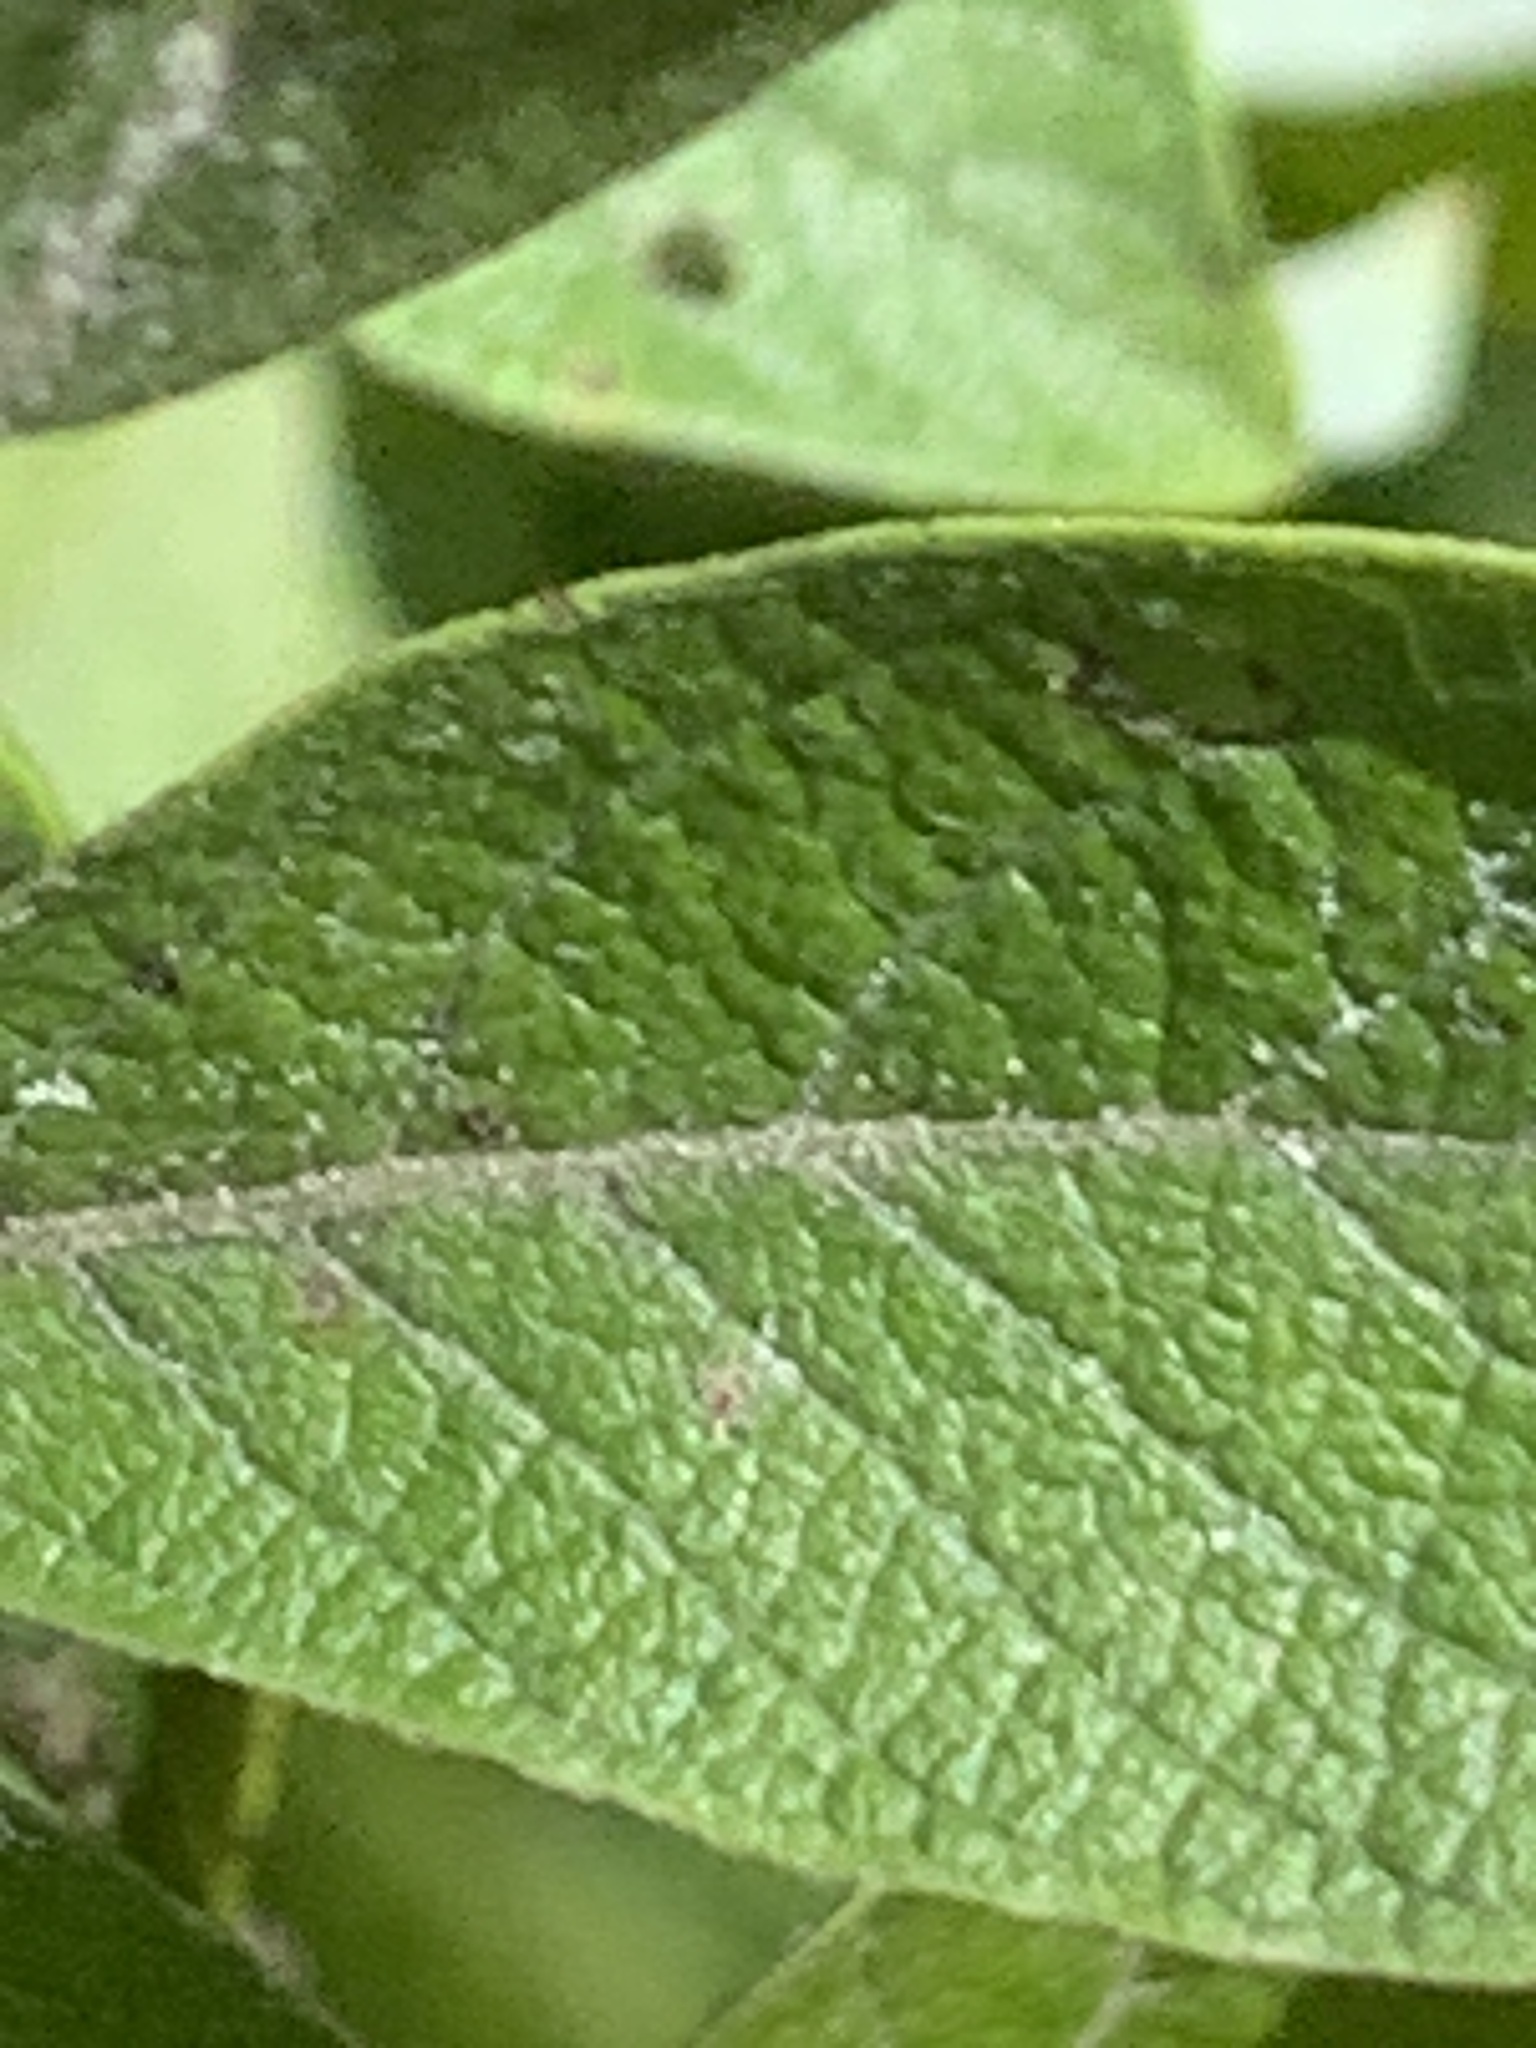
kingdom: Plantae
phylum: Tracheophyta
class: Magnoliopsida
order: Malpighiales
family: Salicaceae
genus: Salix
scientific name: Salix bebbiana
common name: Bebb's willow
